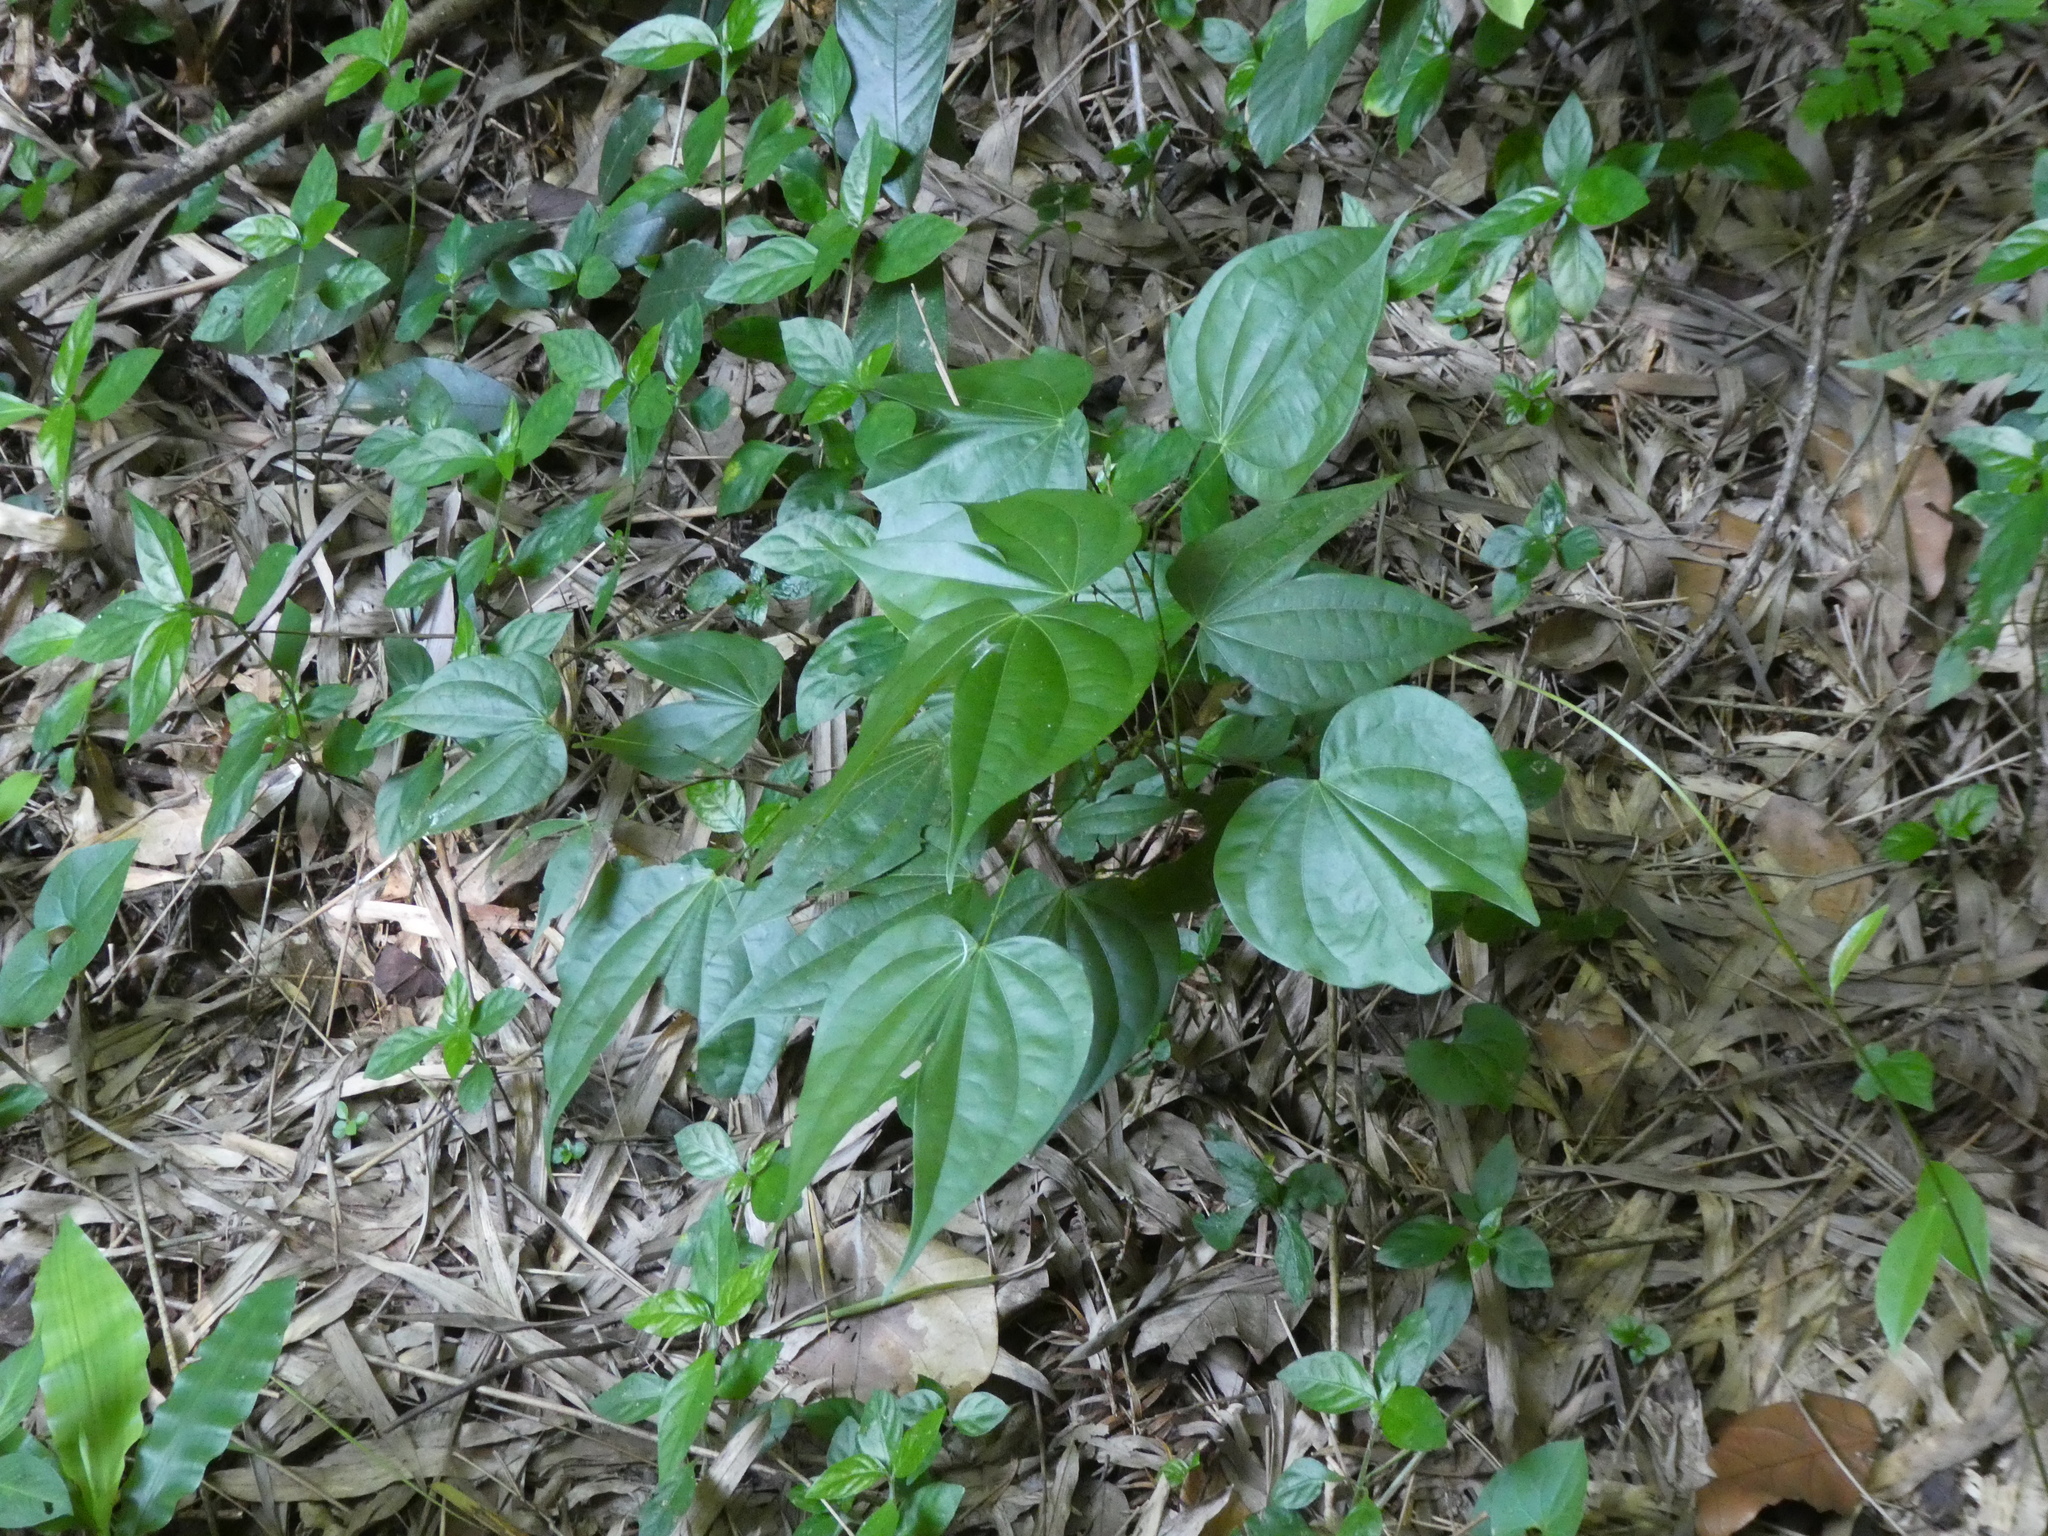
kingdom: Plantae
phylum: Tracheophyta
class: Magnoliopsida
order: Fabales
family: Fabaceae
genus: Phanera
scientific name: Phanera championii
